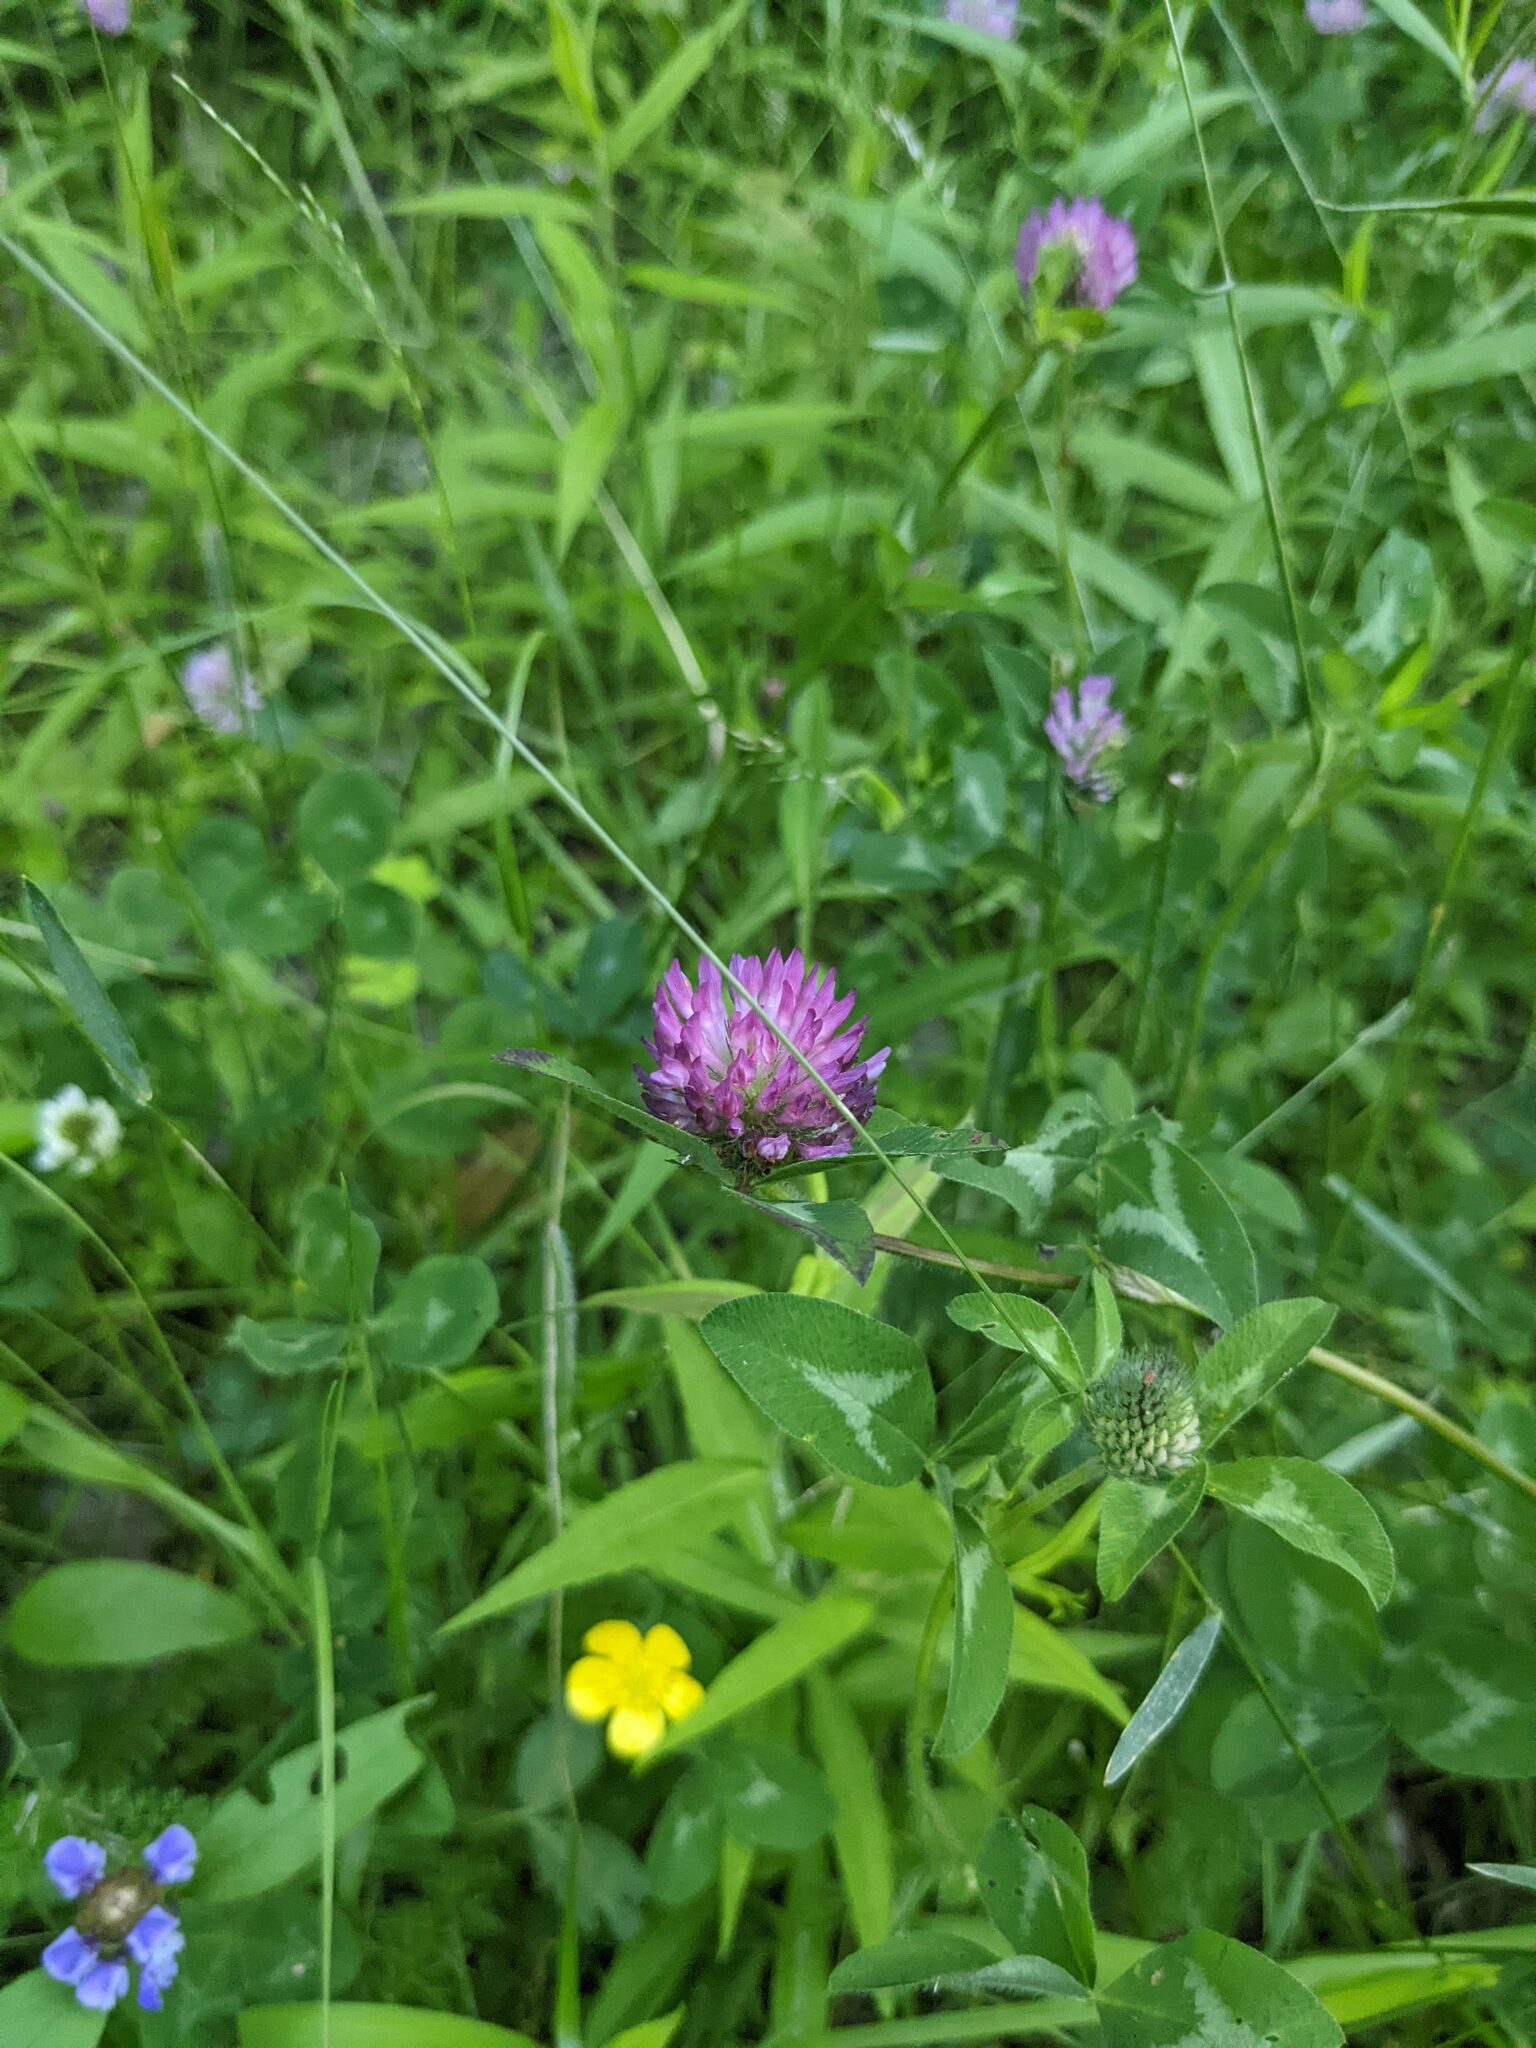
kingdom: Plantae
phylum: Tracheophyta
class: Magnoliopsida
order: Fabales
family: Fabaceae
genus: Trifolium
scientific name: Trifolium pratense
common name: Red clover
